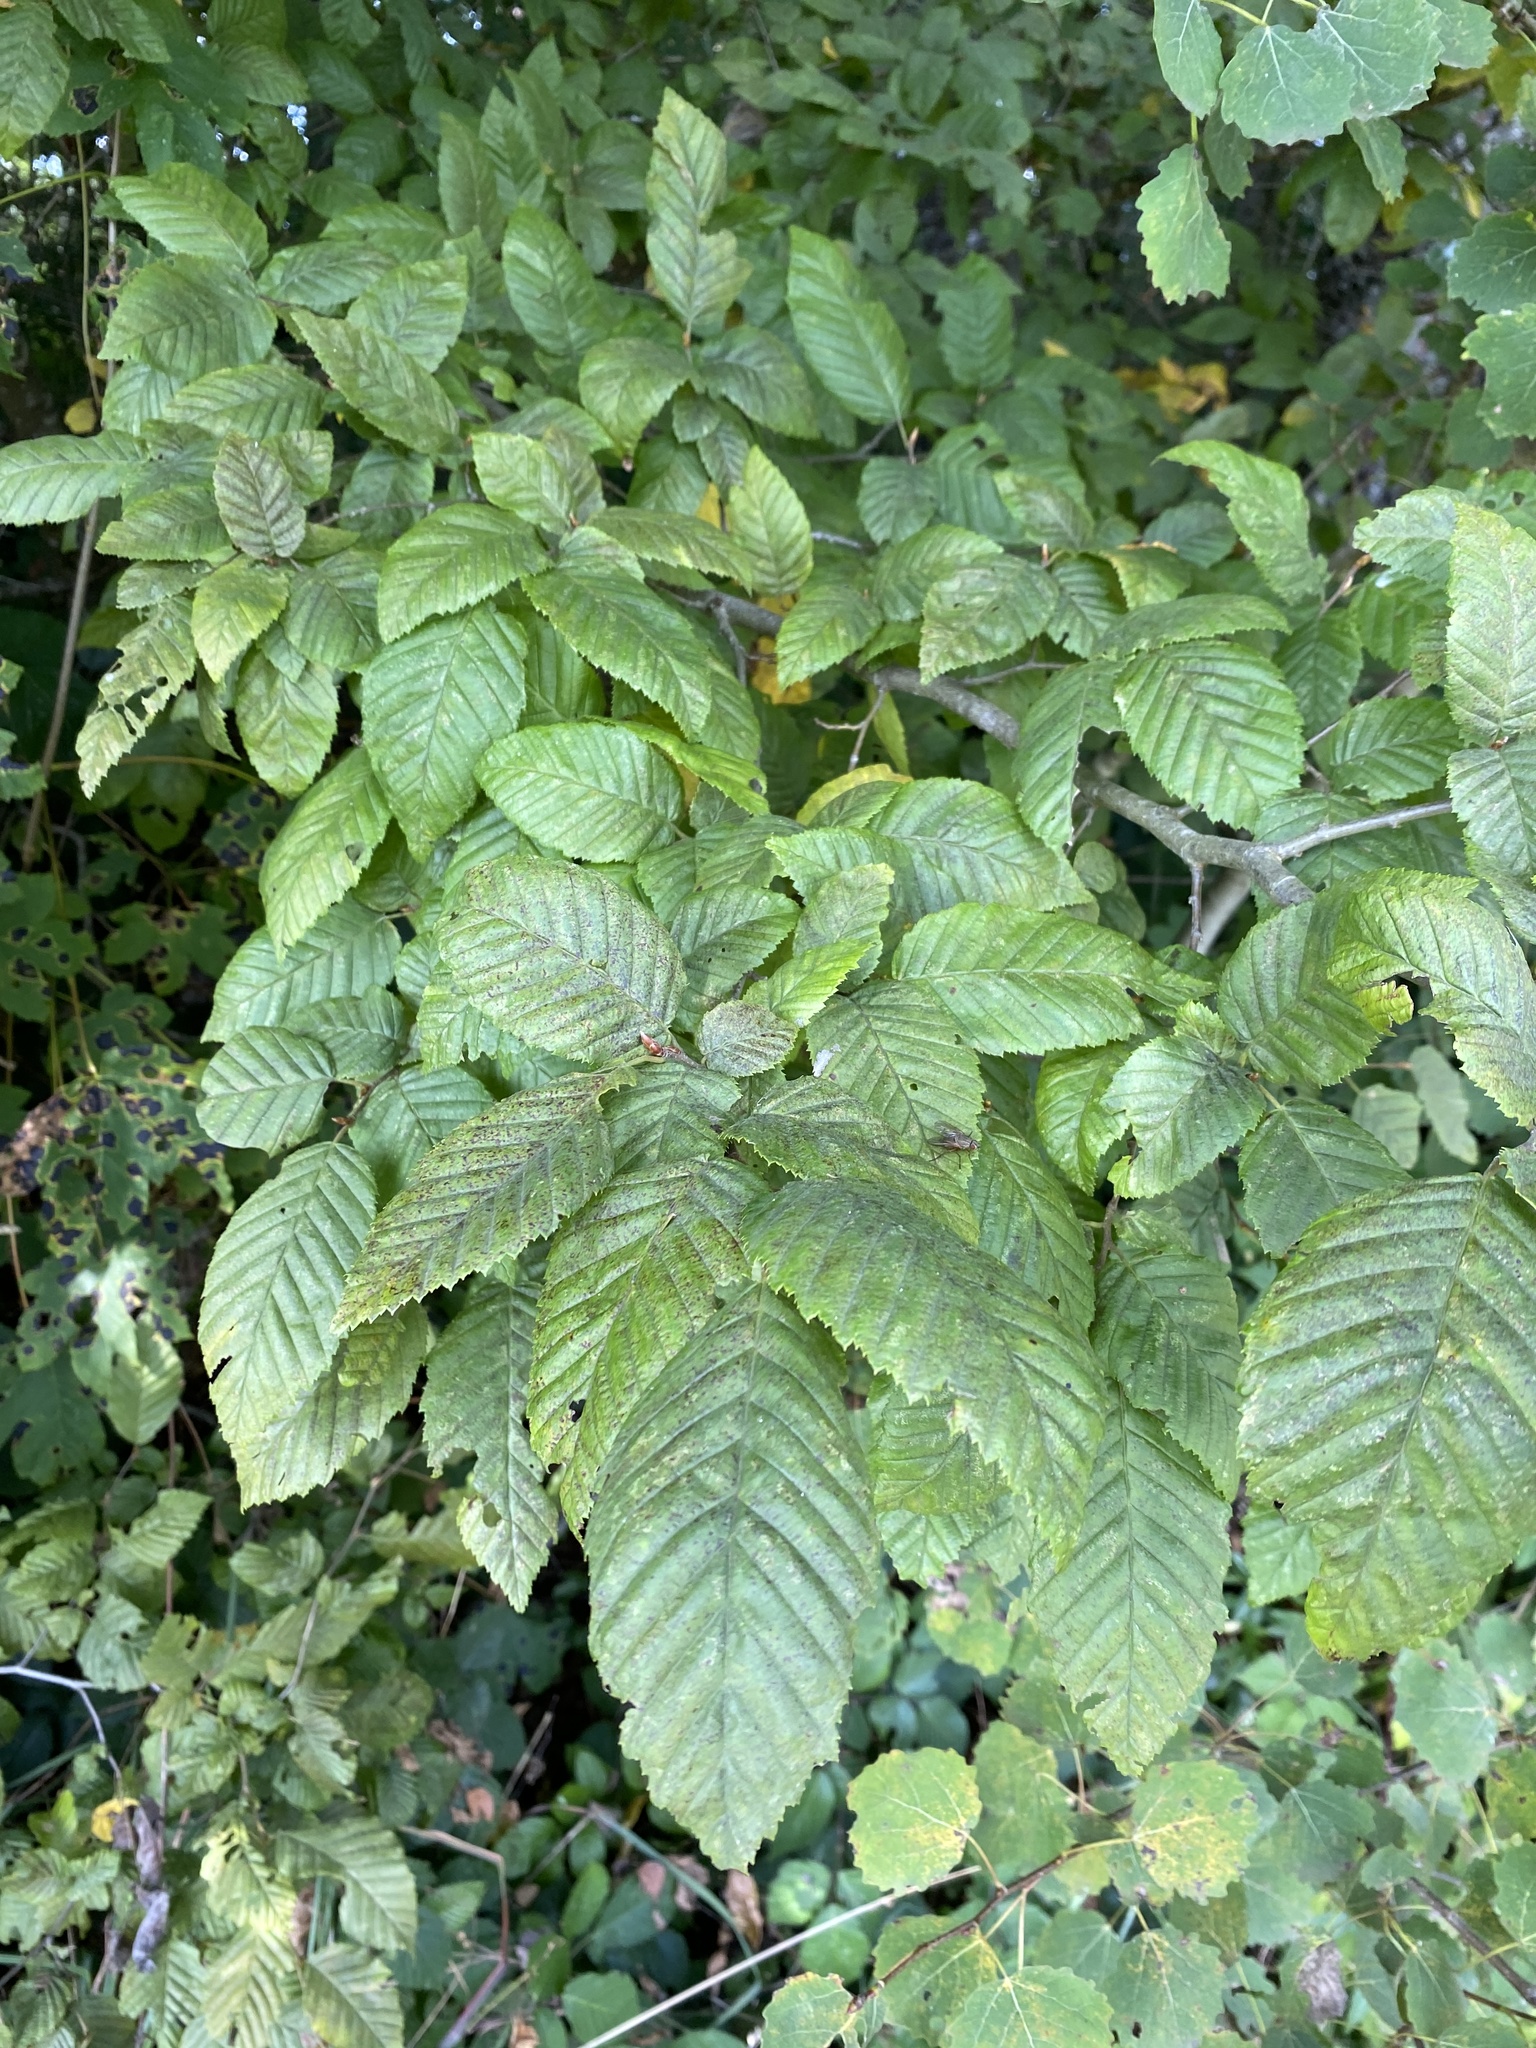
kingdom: Plantae
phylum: Tracheophyta
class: Magnoliopsida
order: Fagales
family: Betulaceae
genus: Carpinus
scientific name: Carpinus betulus
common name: Hornbeam
